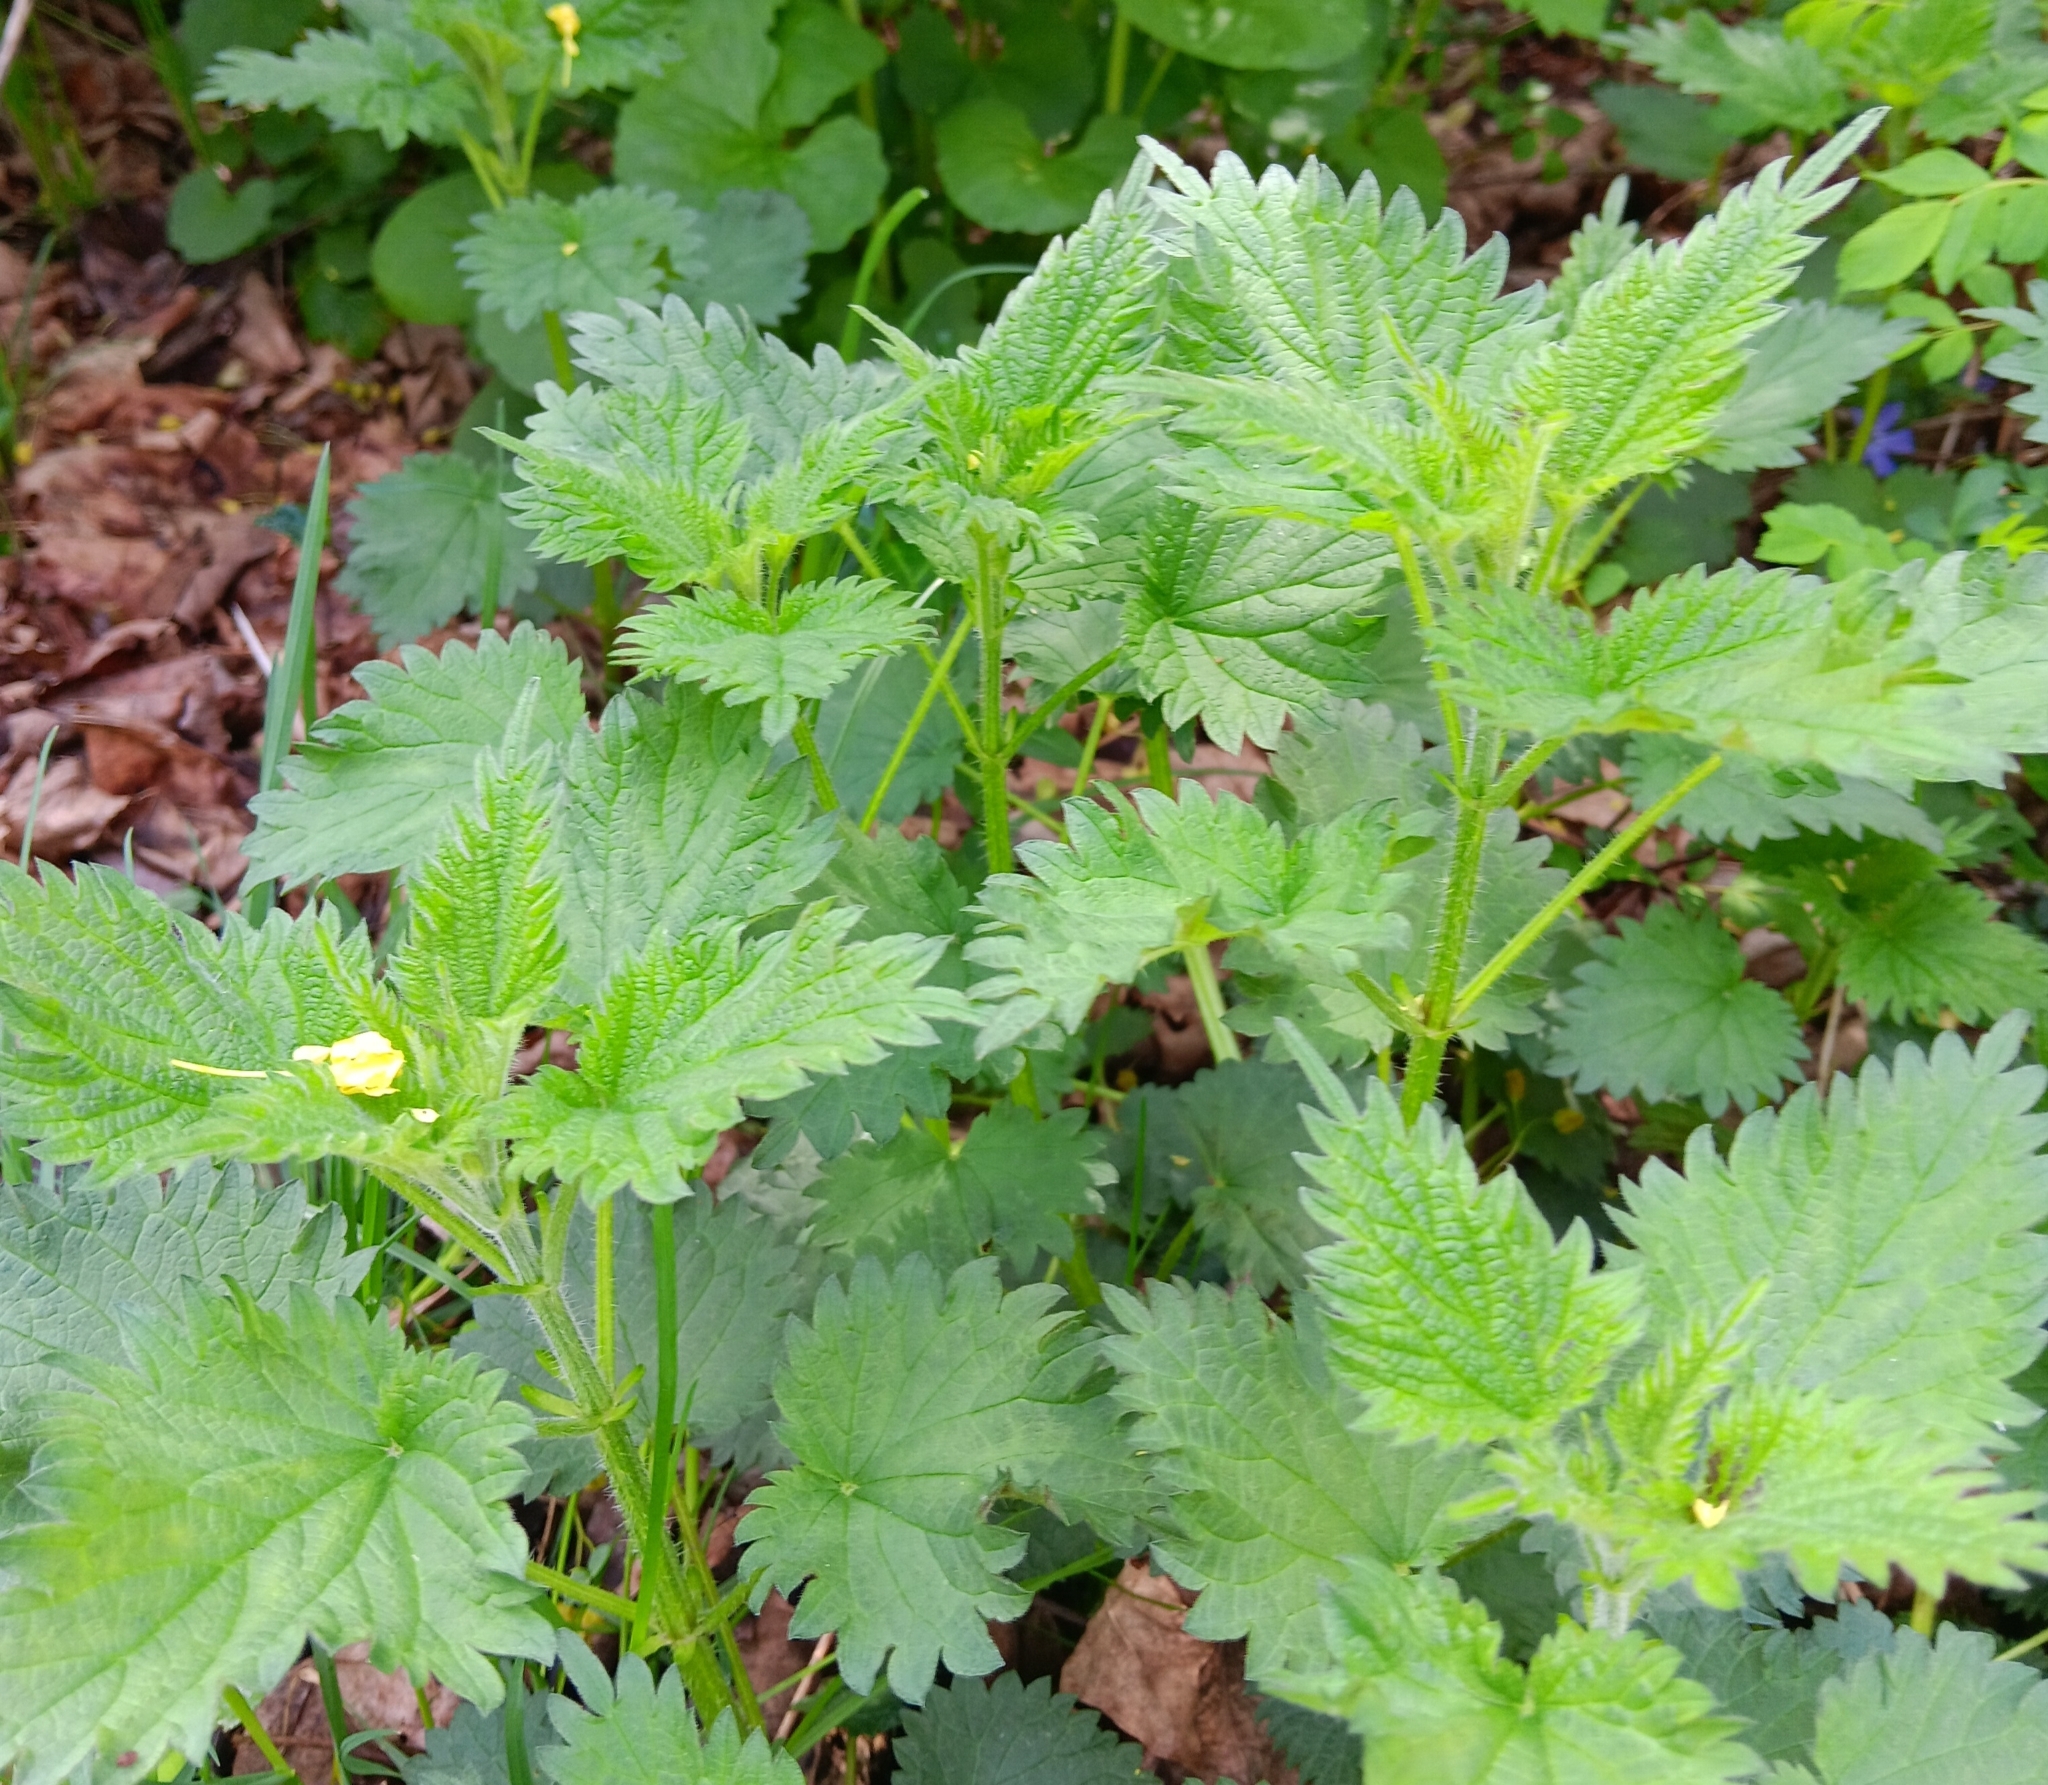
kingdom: Plantae
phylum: Tracheophyta
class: Magnoliopsida
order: Rosales
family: Urticaceae
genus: Urtica
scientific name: Urtica dioica
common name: Common nettle
